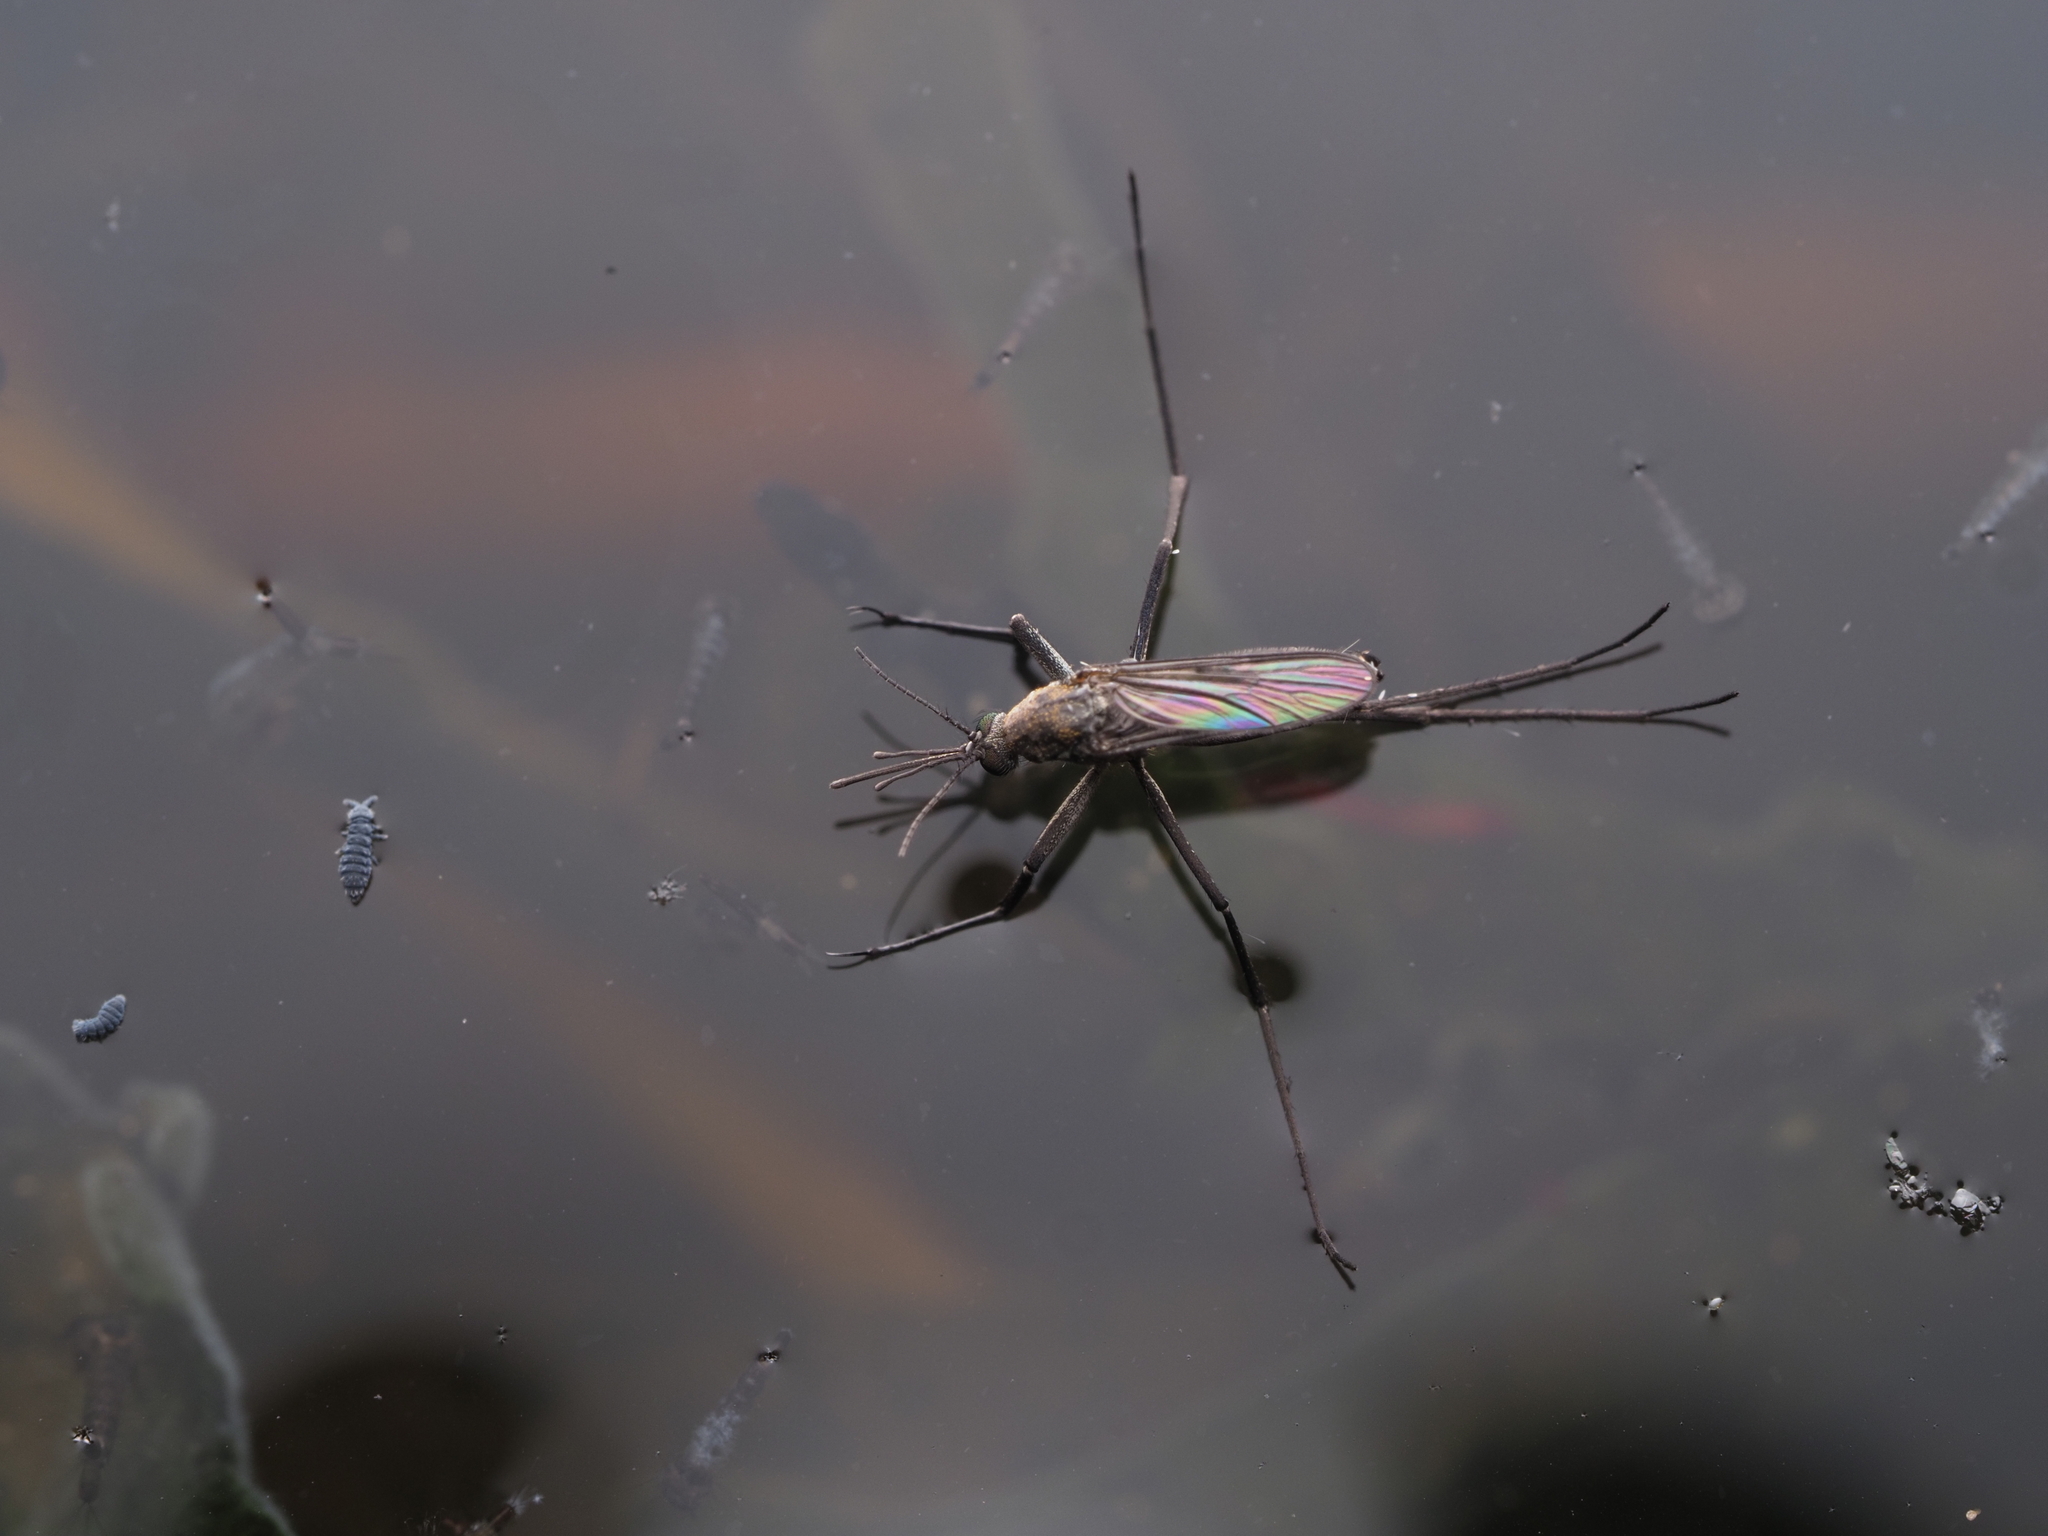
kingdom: Animalia
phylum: Arthropoda
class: Insecta
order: Diptera
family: Culicidae
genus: Opifex
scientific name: Opifex fuscus
